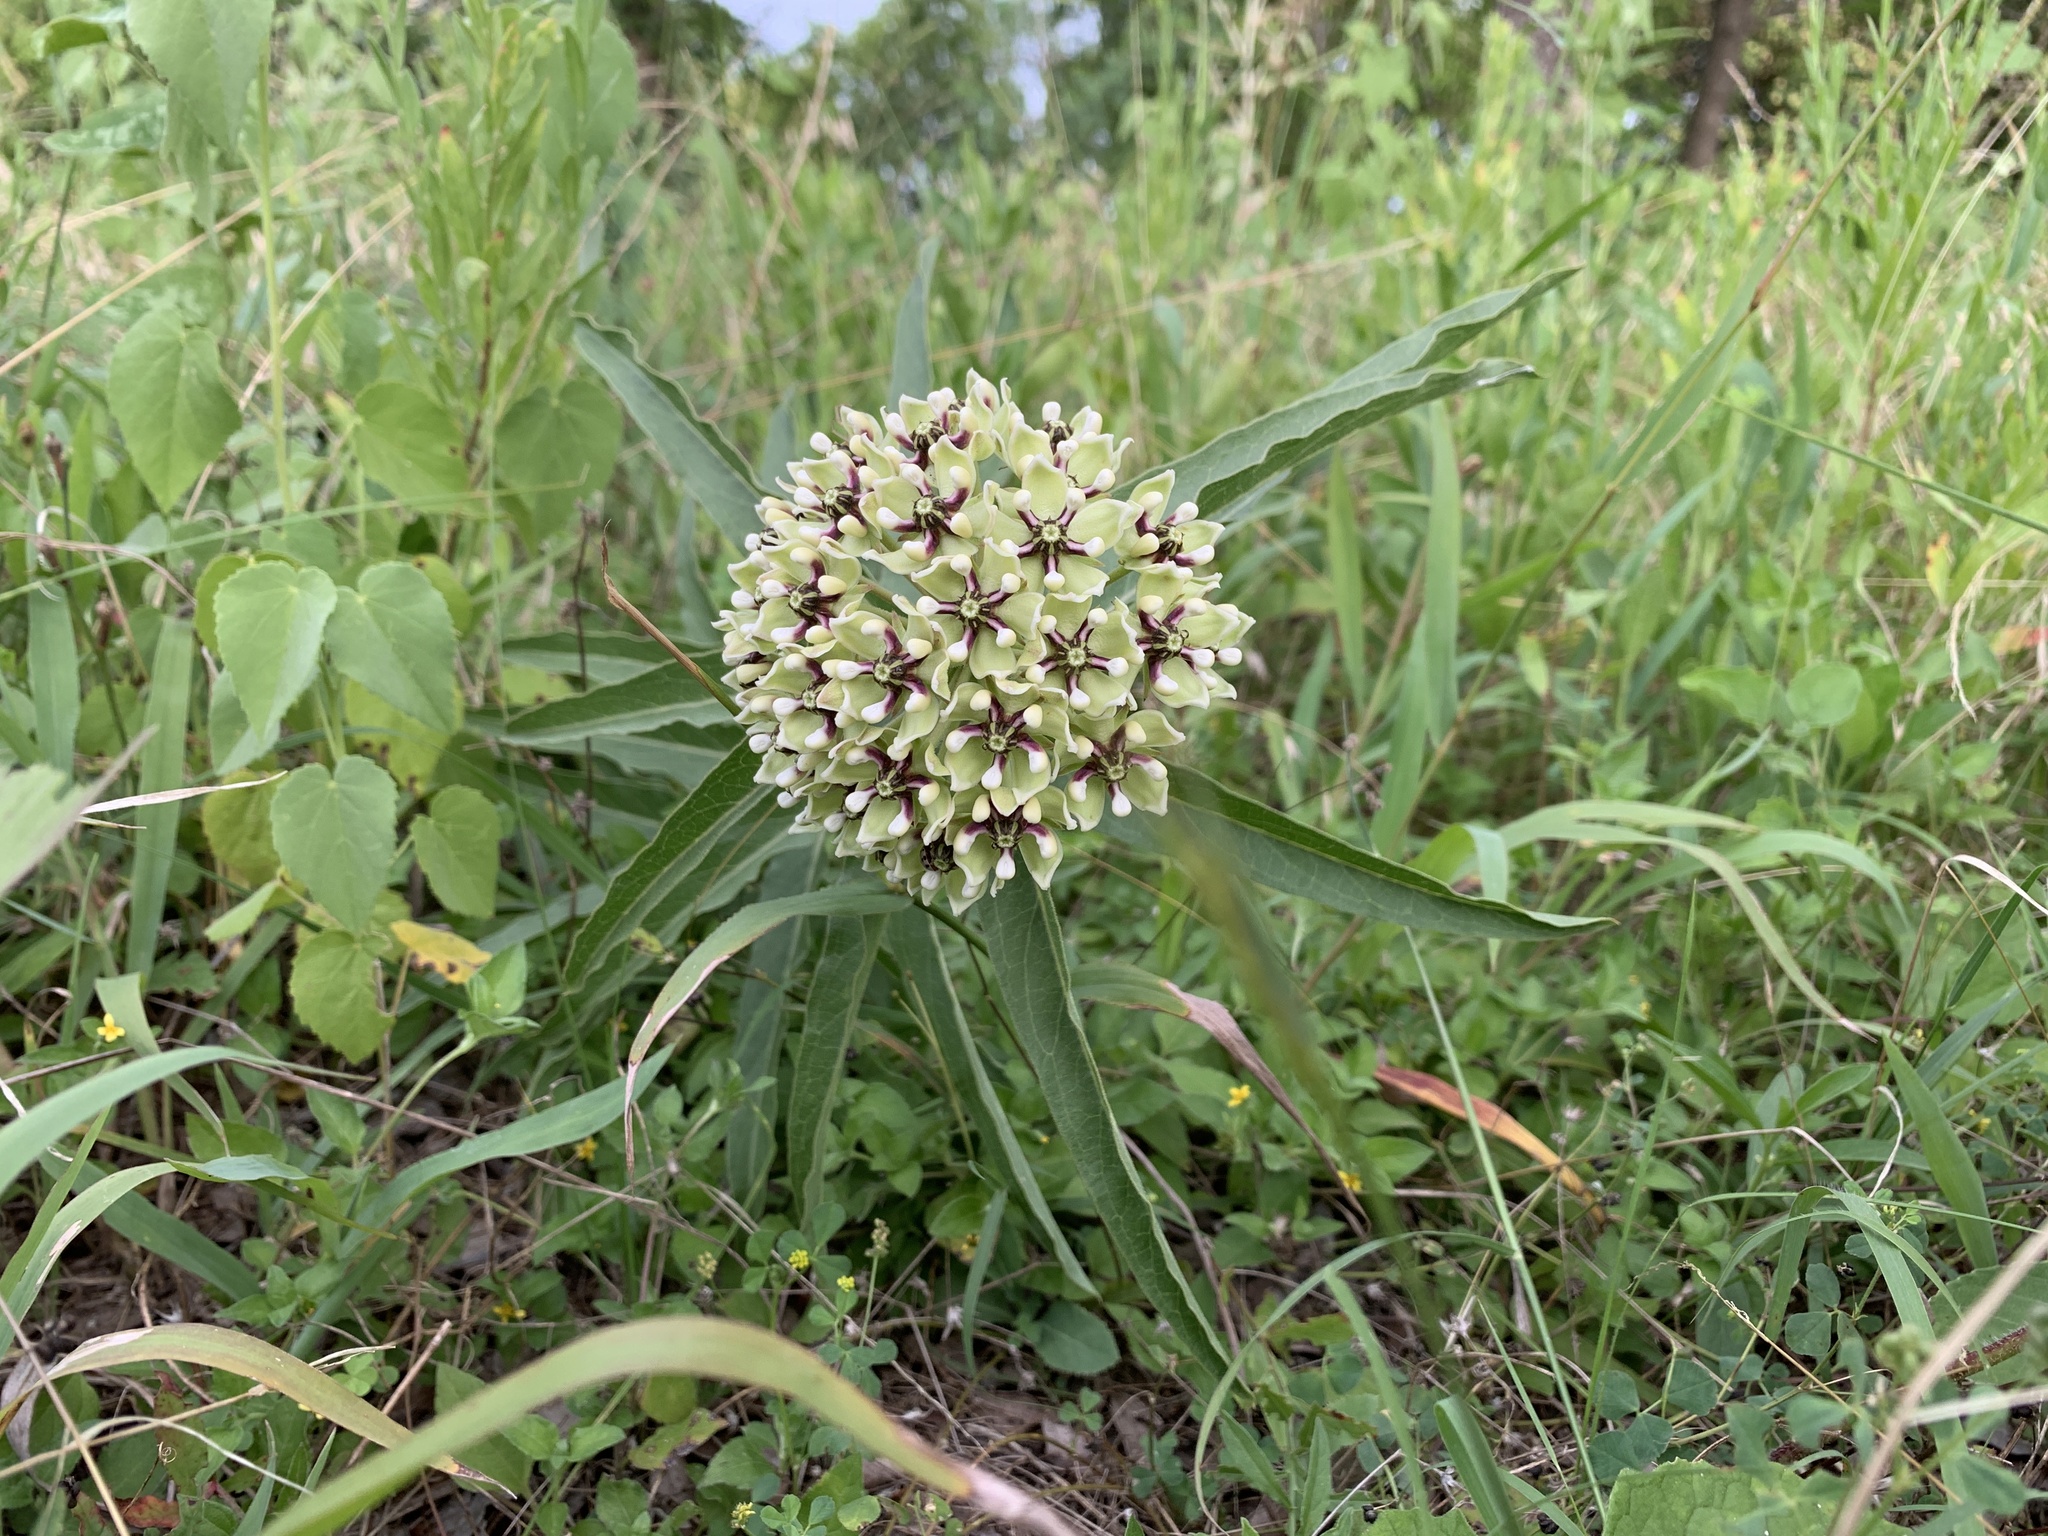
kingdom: Plantae
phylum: Tracheophyta
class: Magnoliopsida
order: Gentianales
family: Apocynaceae
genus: Asclepias
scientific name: Asclepias asperula
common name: Antelope horns
